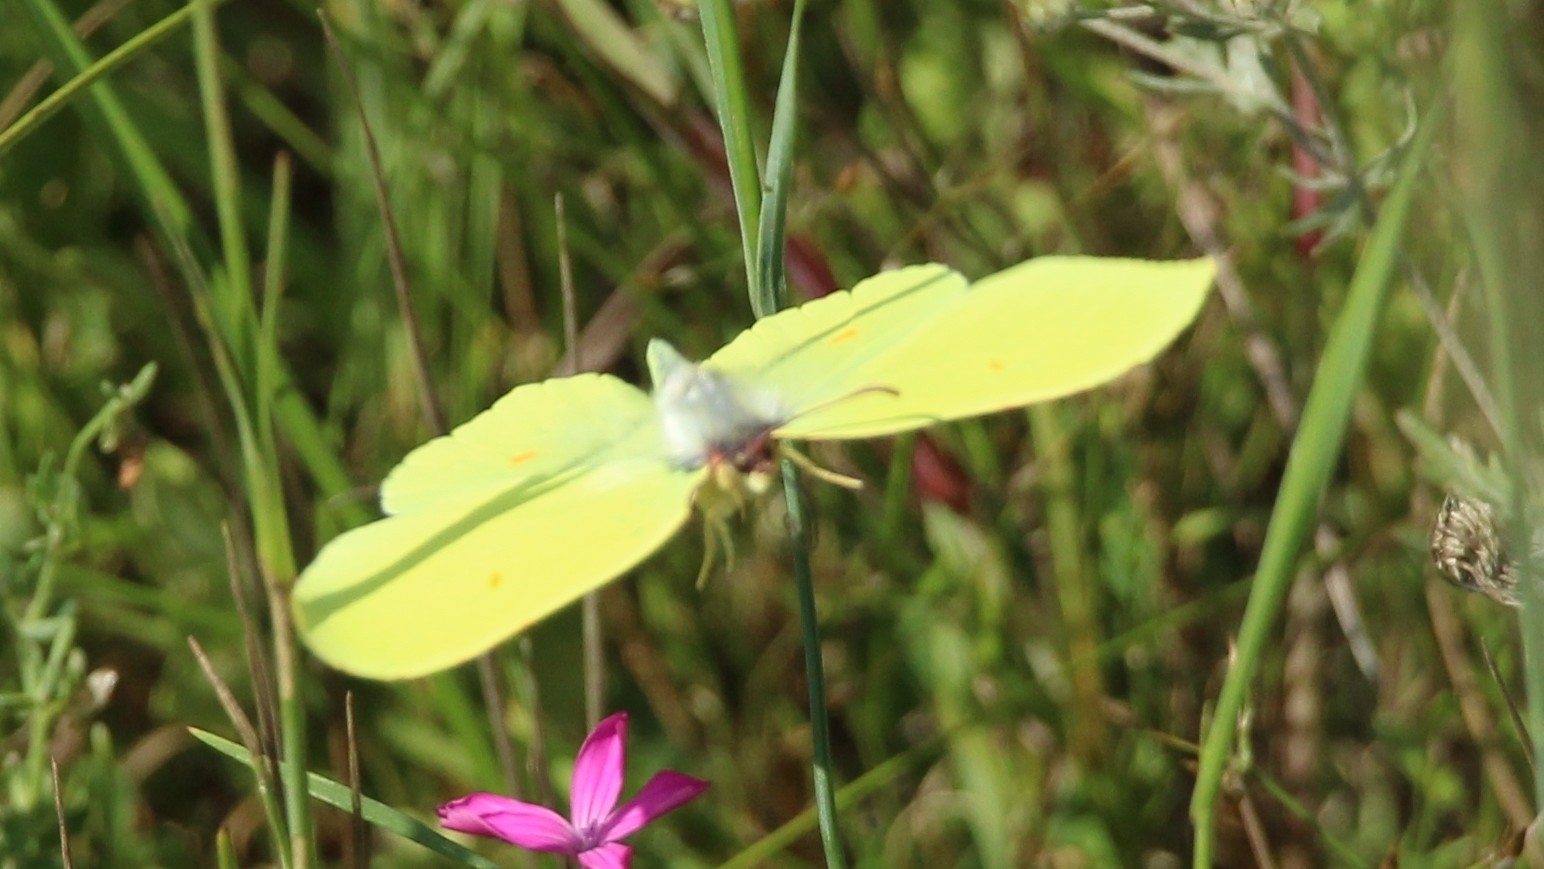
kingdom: Animalia
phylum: Arthropoda
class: Insecta
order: Lepidoptera
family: Pieridae
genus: Gonepteryx
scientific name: Gonepteryx rhamni
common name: Brimstone
